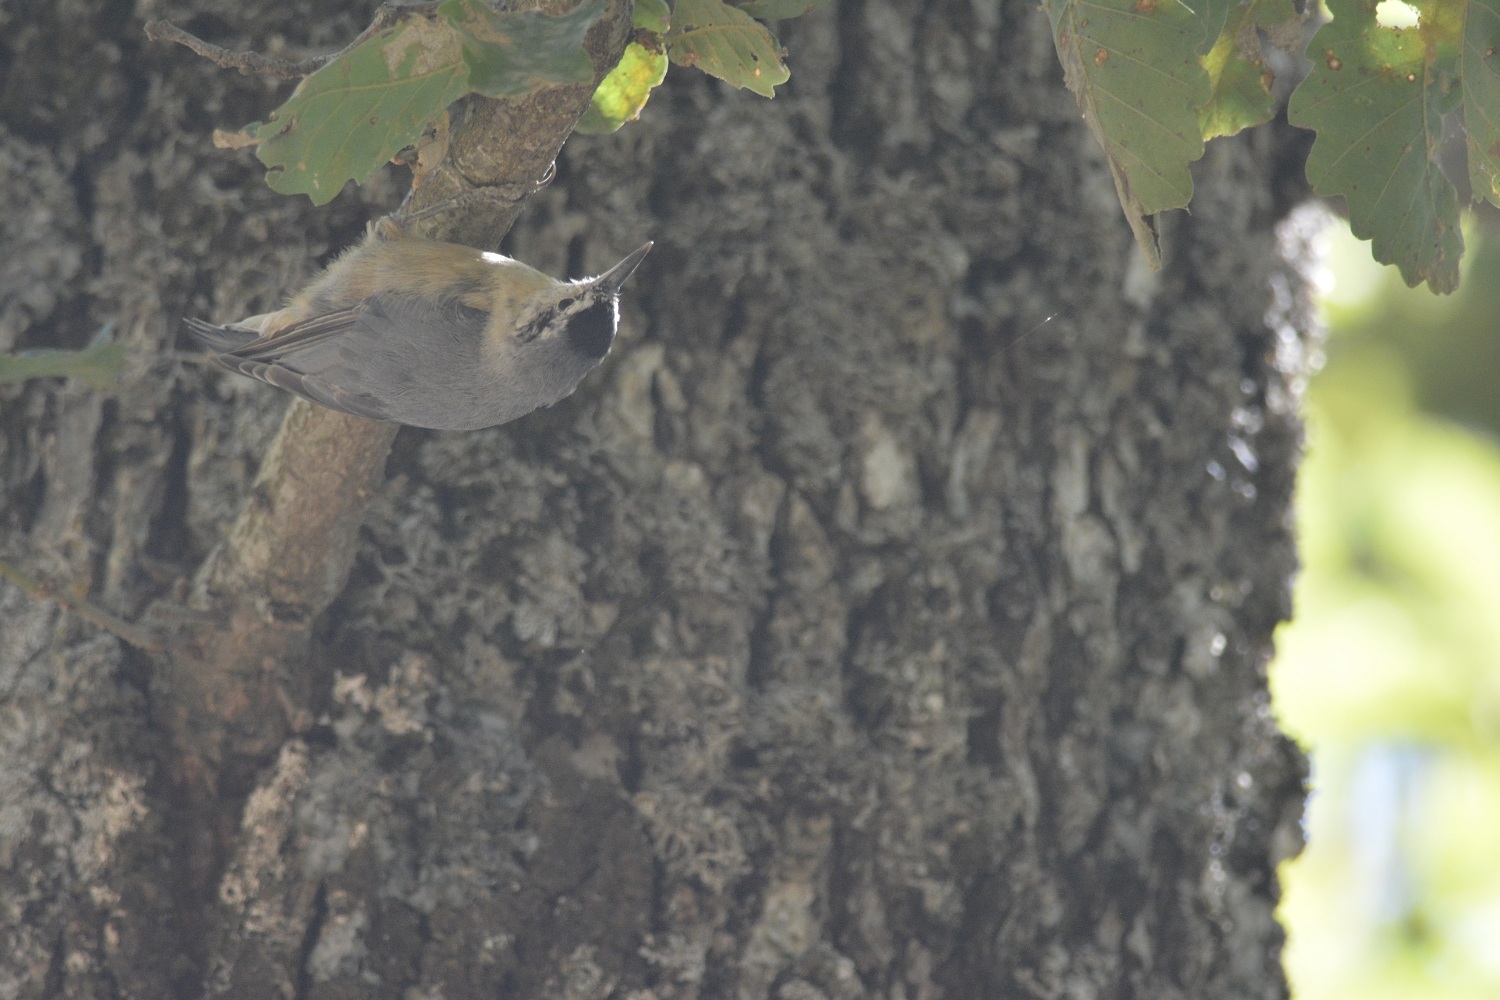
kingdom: Animalia
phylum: Chordata
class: Aves
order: Passeriformes
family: Sittidae
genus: Sitta
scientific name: Sitta ledanti
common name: Algerian nuthatch
